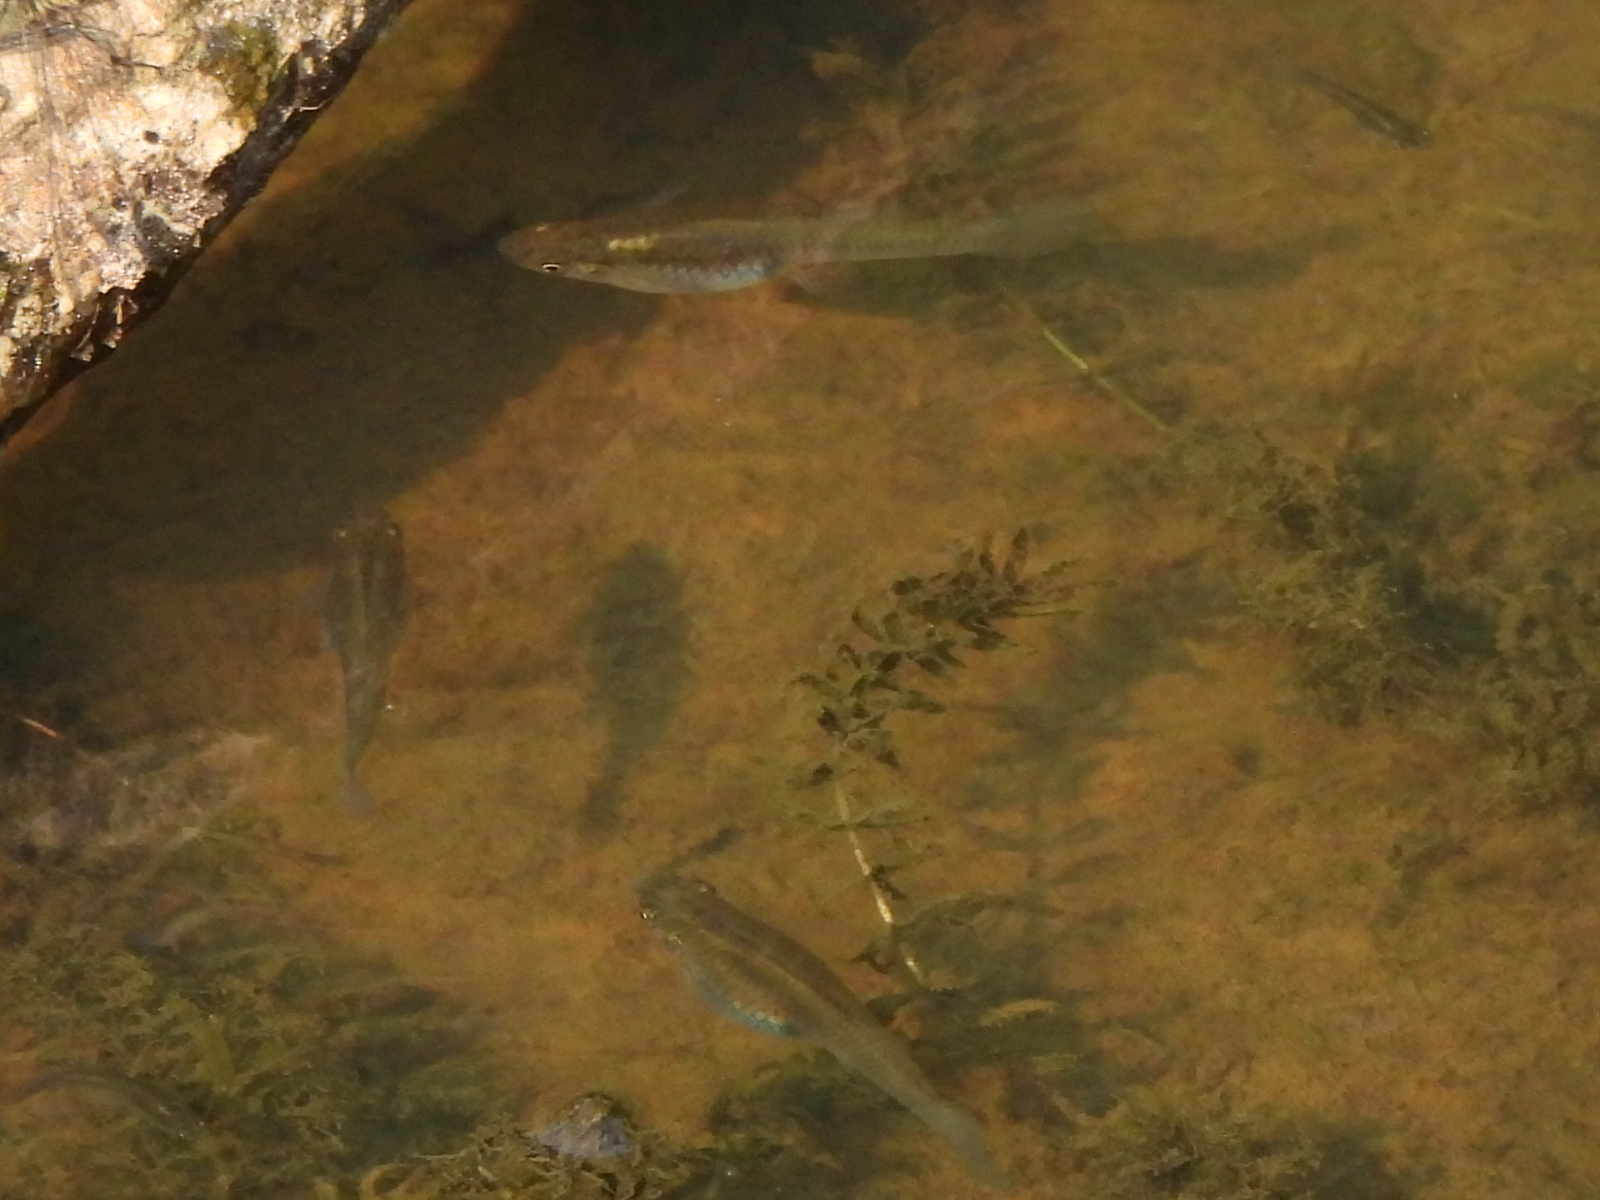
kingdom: Animalia
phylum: Chordata
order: Cyprinodontiformes
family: Poeciliidae
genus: Gambusia
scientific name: Gambusia holbrooki
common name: Eastern mosquitofish
